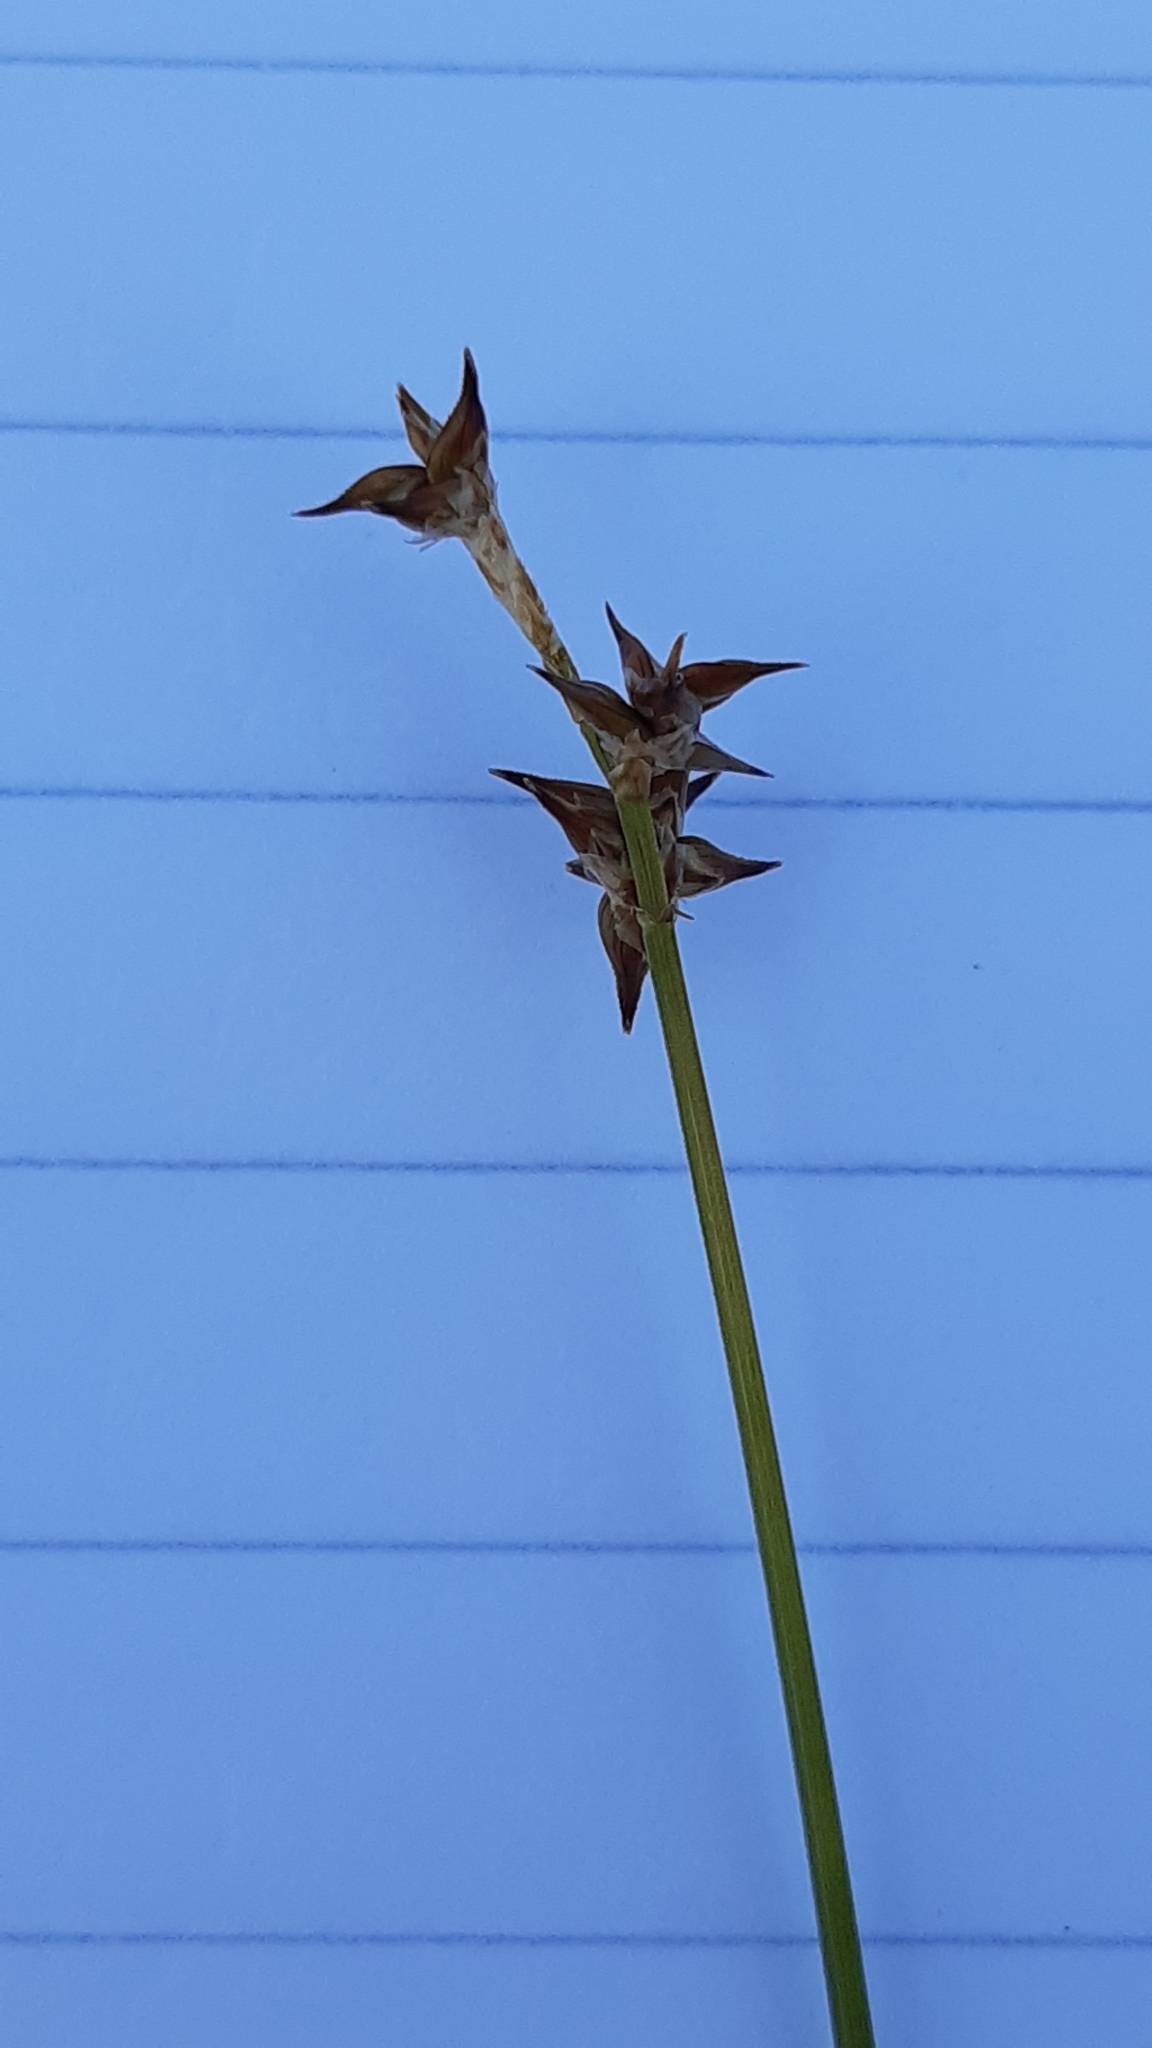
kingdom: Plantae
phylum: Tracheophyta
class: Liliopsida
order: Poales
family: Cyperaceae
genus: Carex
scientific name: Carex echinata
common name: Star sedge
